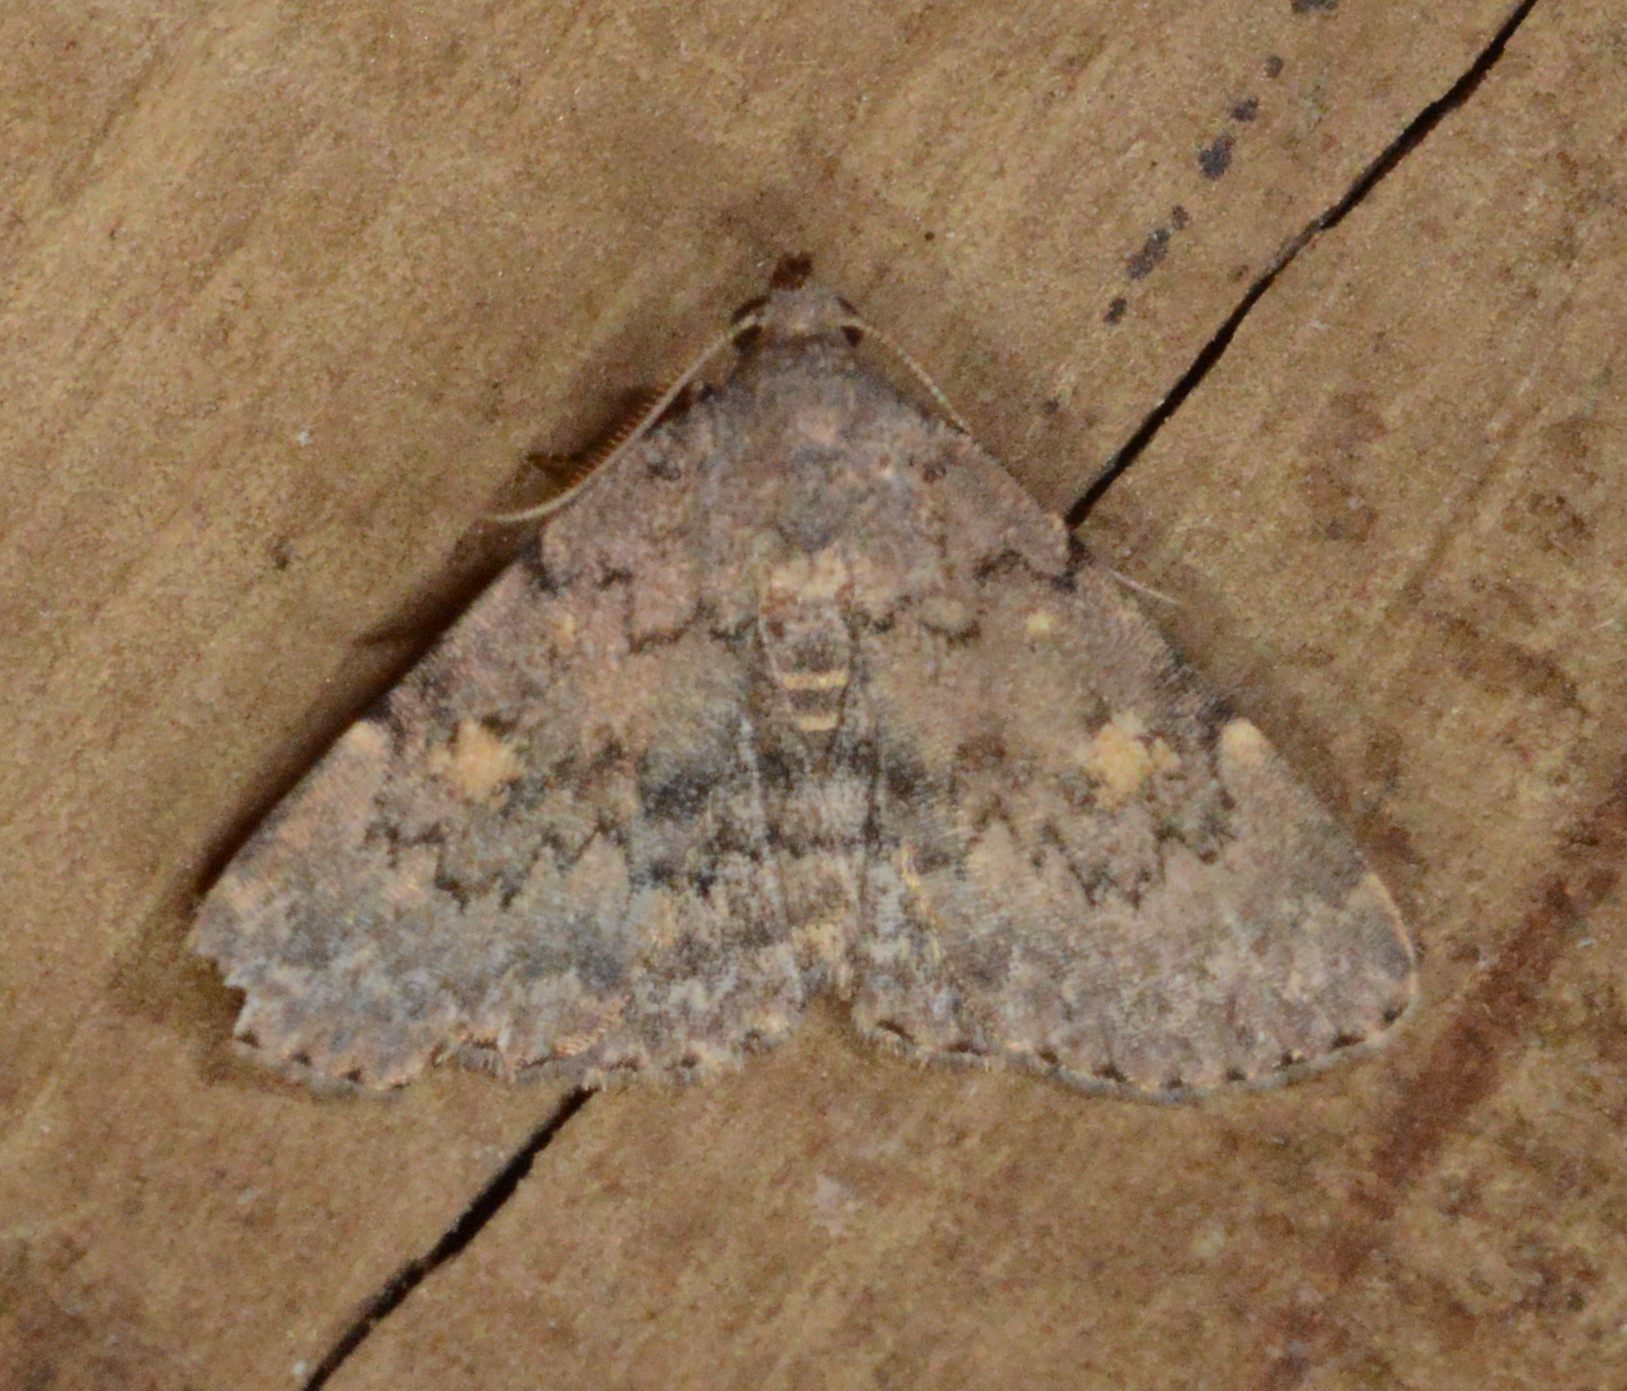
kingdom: Animalia
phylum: Arthropoda
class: Insecta
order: Lepidoptera
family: Erebidae
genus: Idia
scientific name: Idia aemula
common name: Common idia moth
